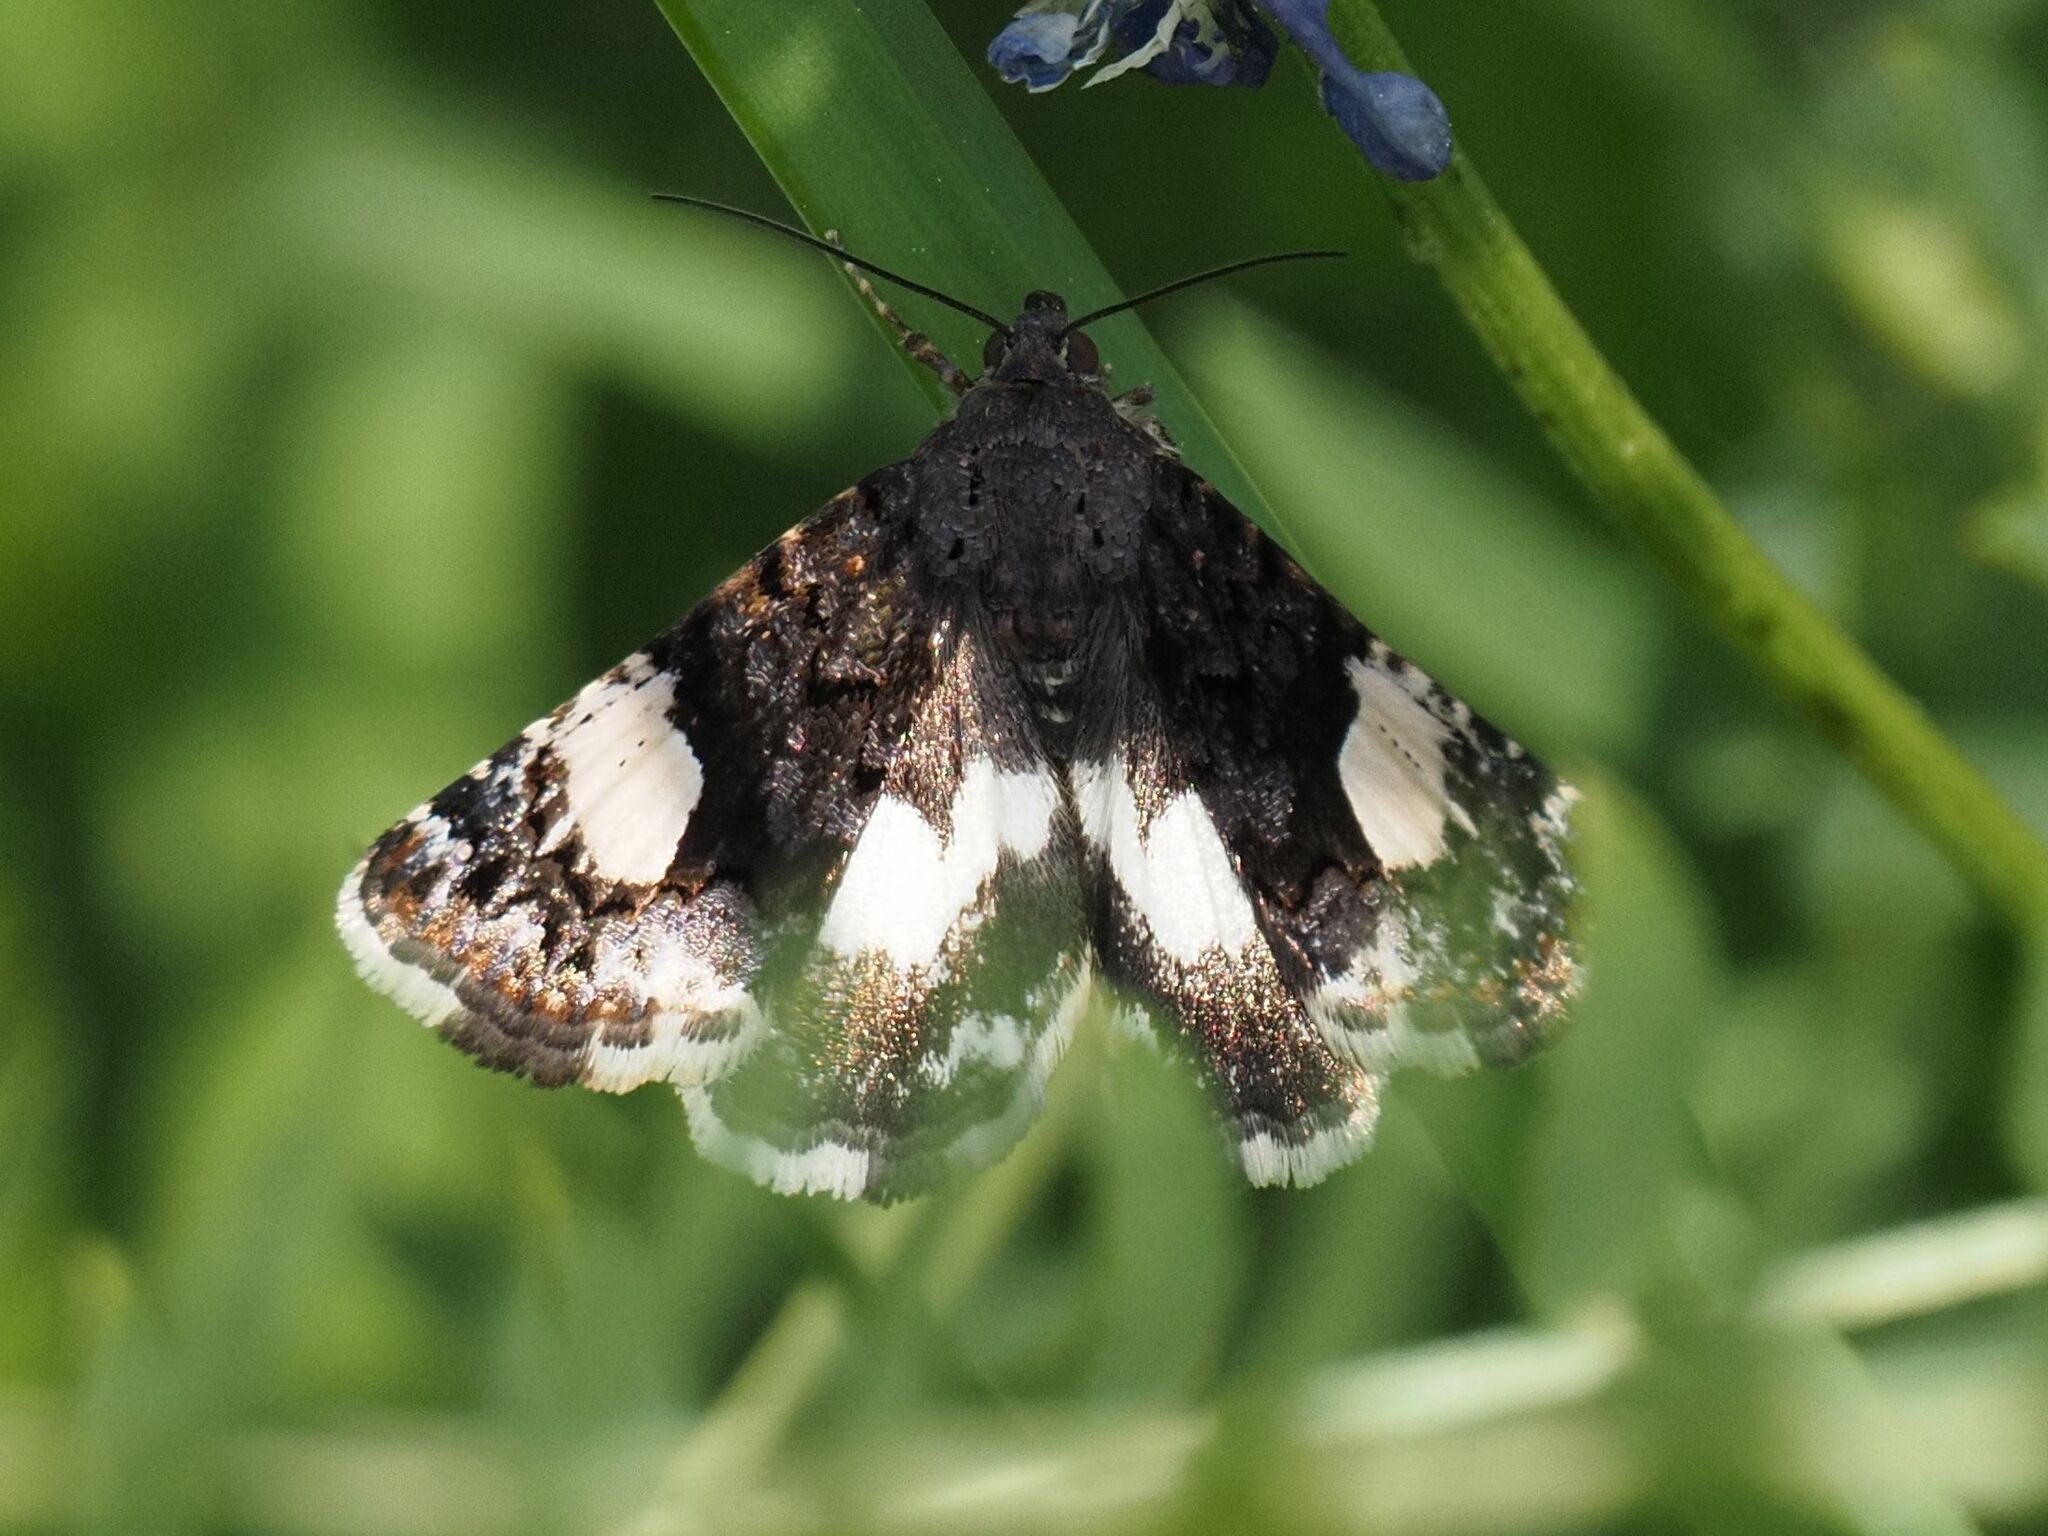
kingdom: Animalia
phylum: Arthropoda
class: Insecta
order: Lepidoptera
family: Erebidae
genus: Tyta
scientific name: Tyta luctuosa
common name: Four-spotted
